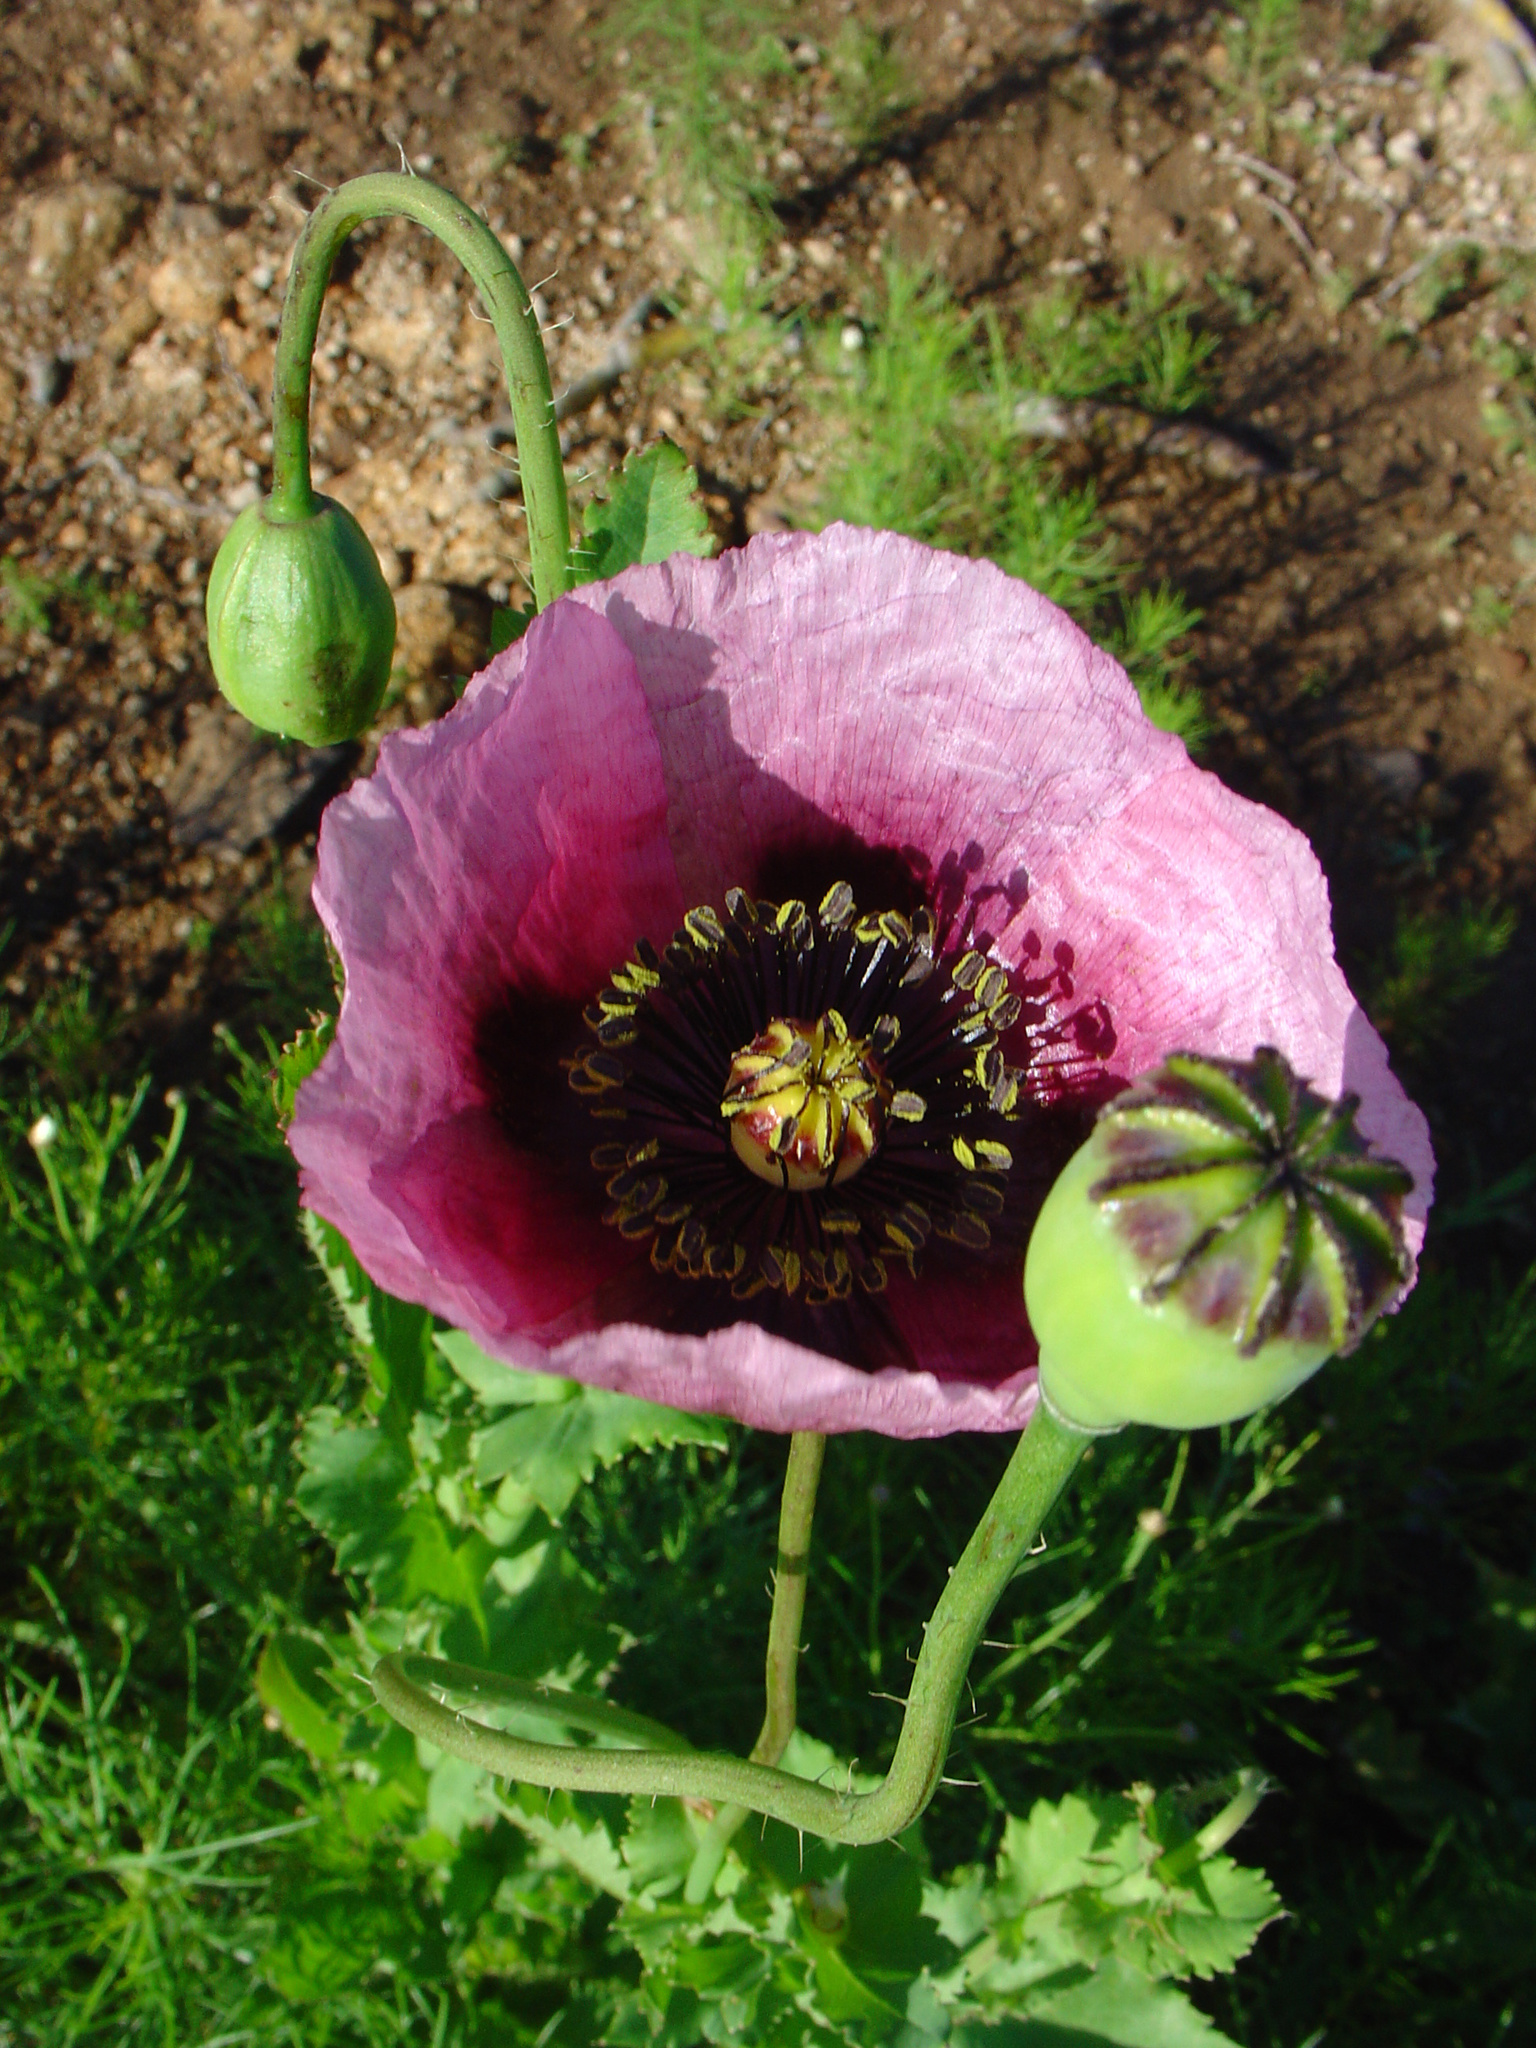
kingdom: Plantae
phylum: Tracheophyta
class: Magnoliopsida
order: Ranunculales
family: Papaveraceae
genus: Papaver
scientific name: Papaver setigerum
